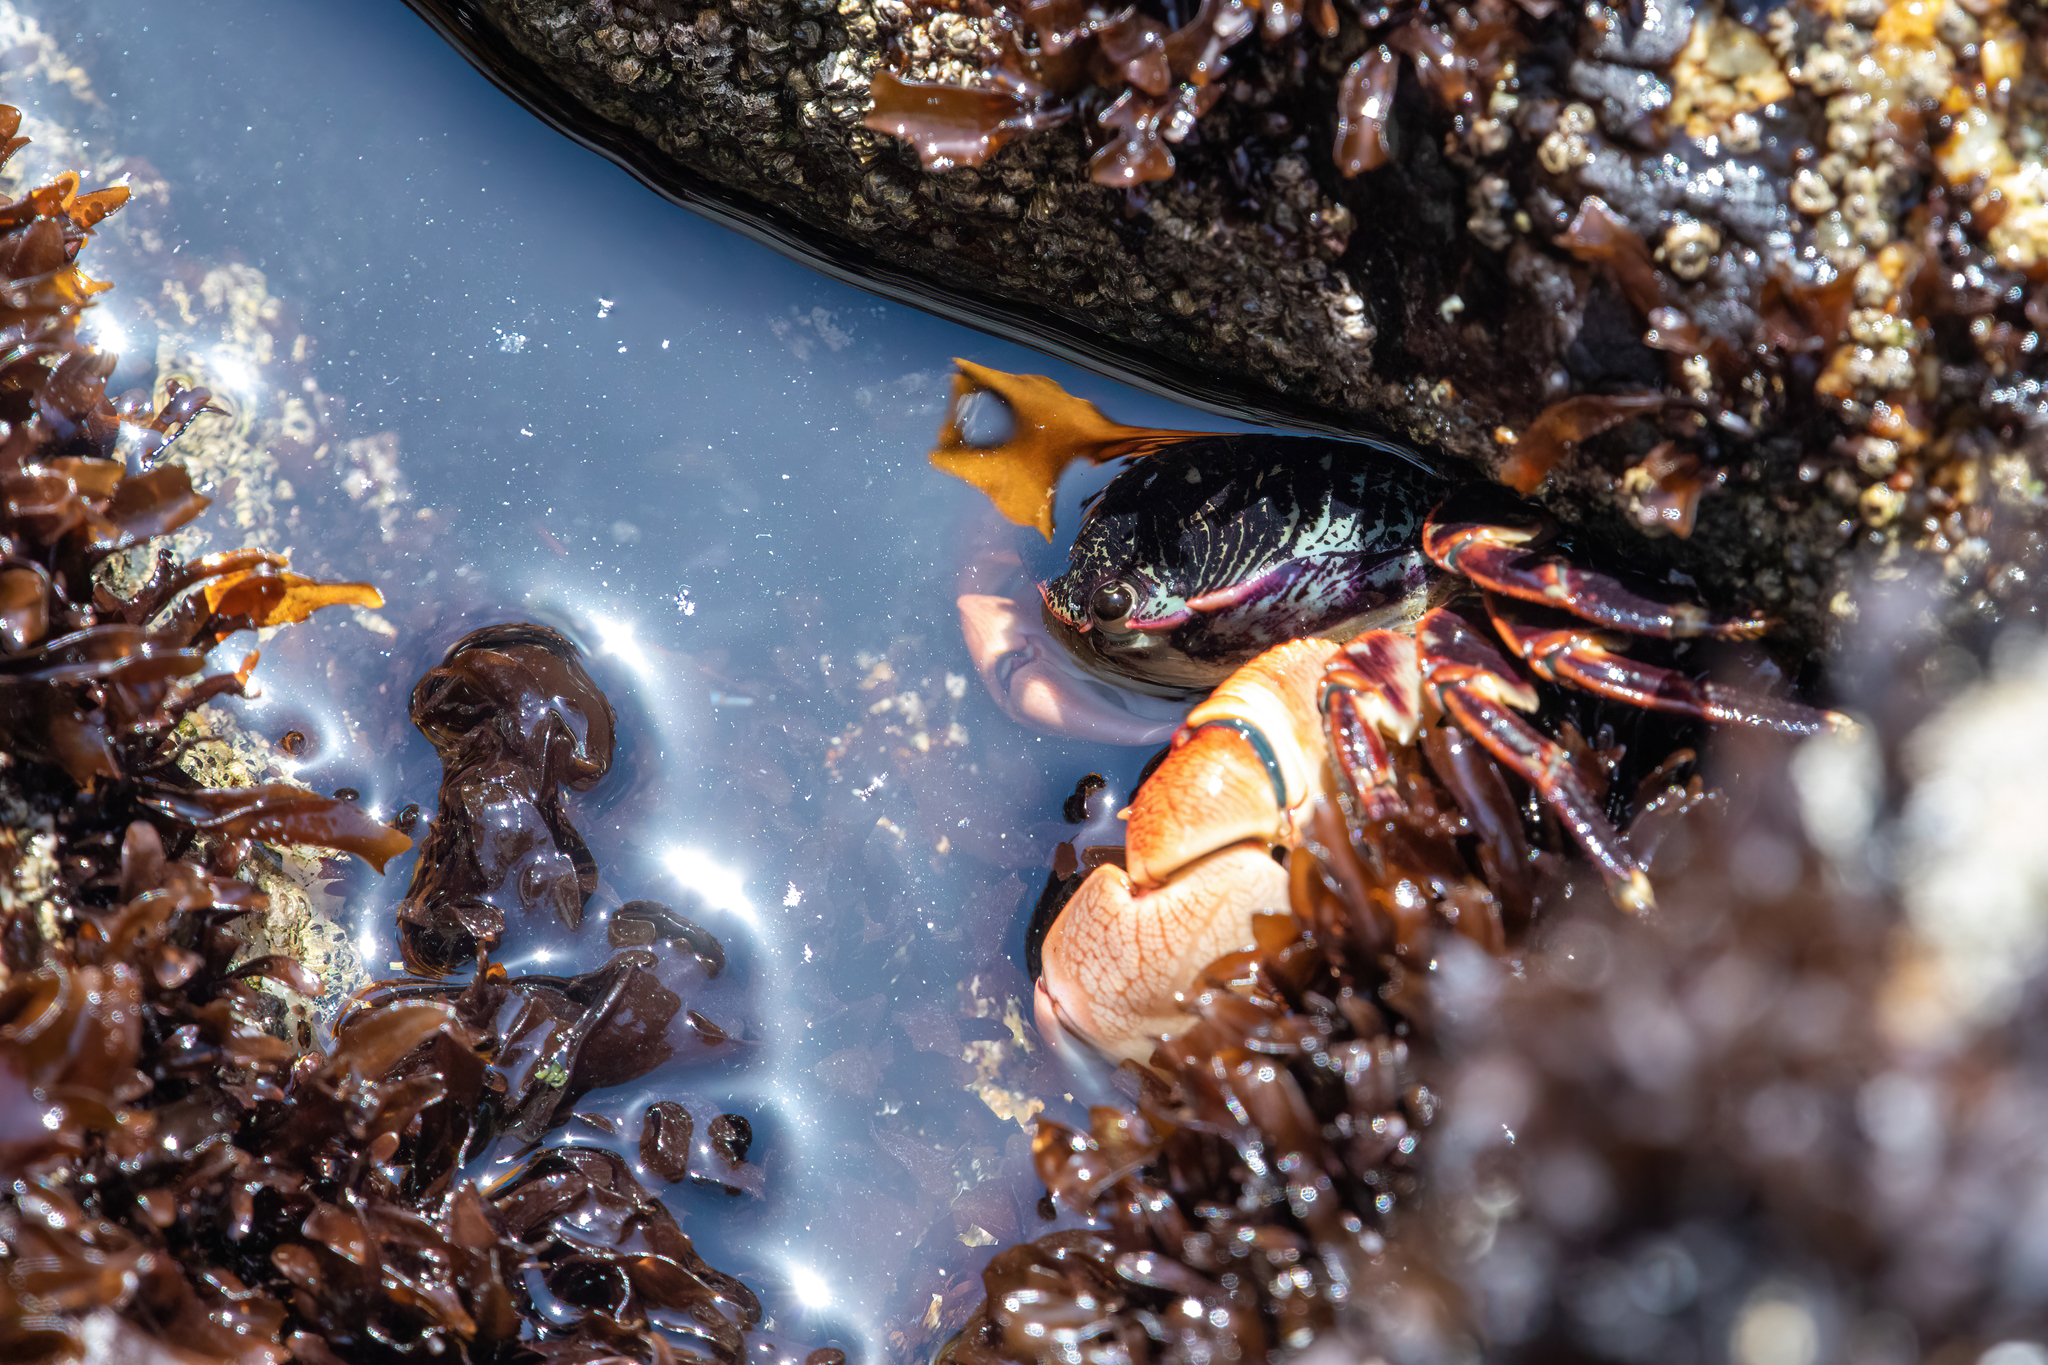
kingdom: Animalia
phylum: Arthropoda
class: Malacostraca
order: Decapoda
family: Grapsidae
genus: Pachygrapsus
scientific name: Pachygrapsus crassipes
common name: Striped shore crab
